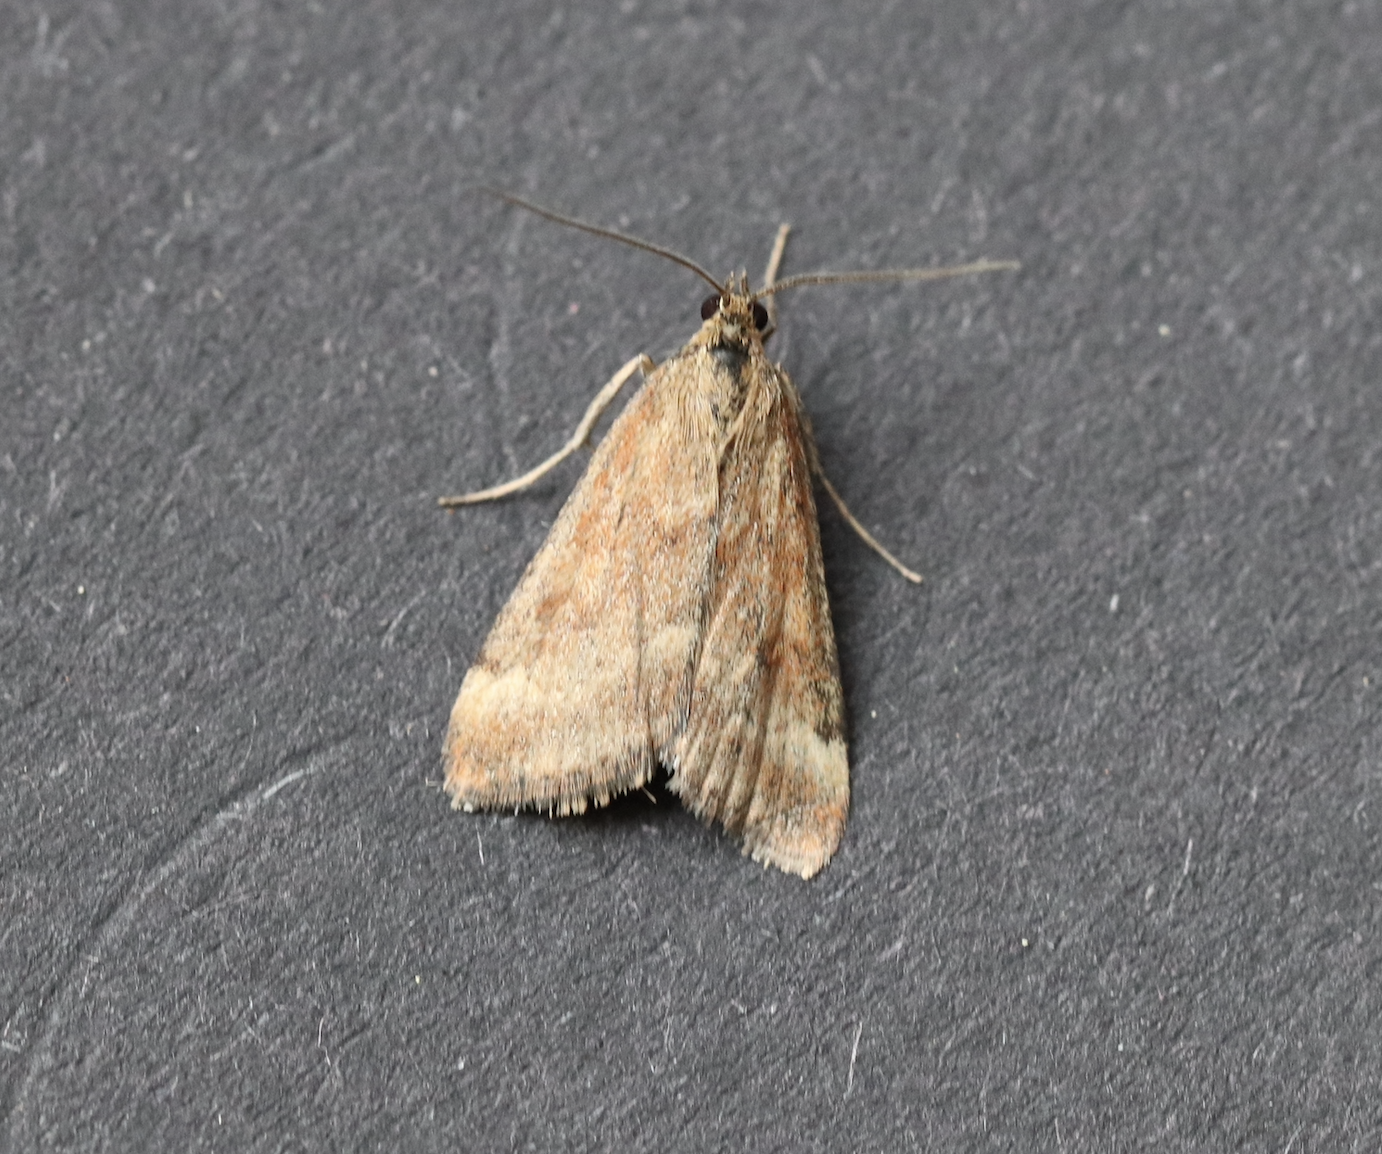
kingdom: Animalia
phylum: Arthropoda
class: Insecta
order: Lepidoptera
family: Crambidae
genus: Pyrausta
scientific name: Pyrausta despicata
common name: Straw-barred pearl
